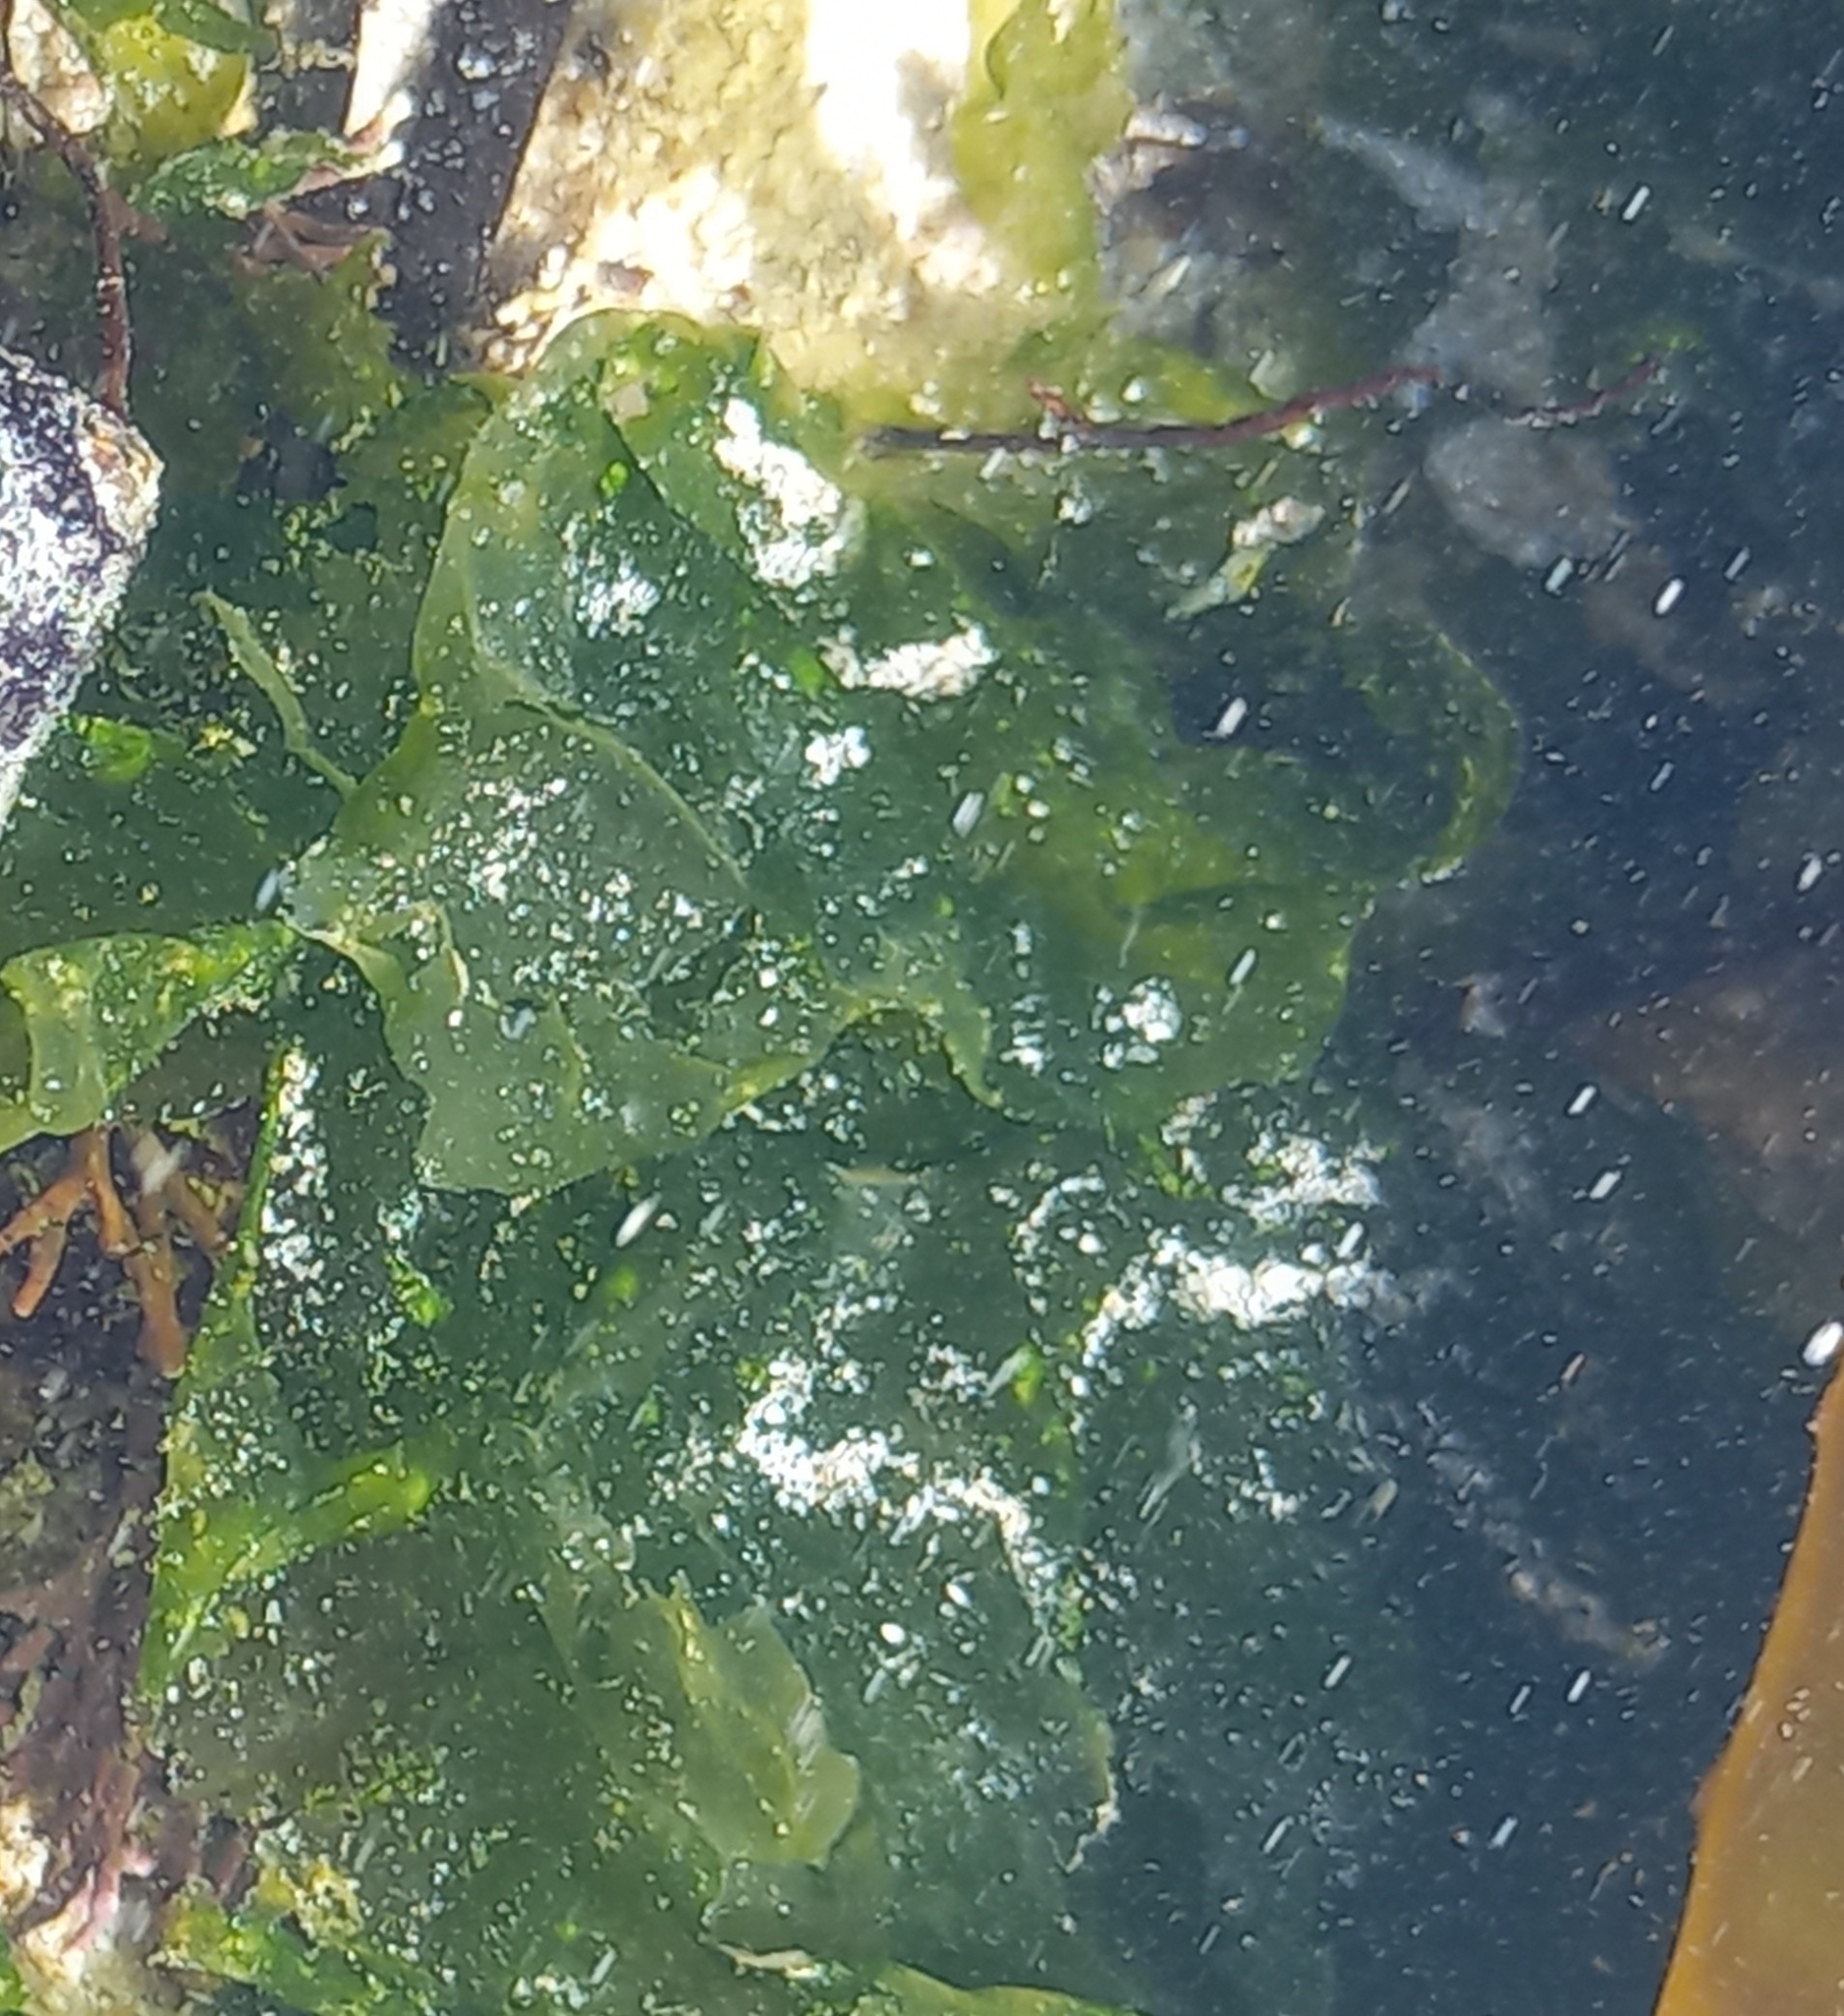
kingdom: Plantae
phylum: Chlorophyta
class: Ulvophyceae
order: Ulvales
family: Ulvaceae
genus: Ulva
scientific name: Ulva lactuca
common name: Sea lettuce
